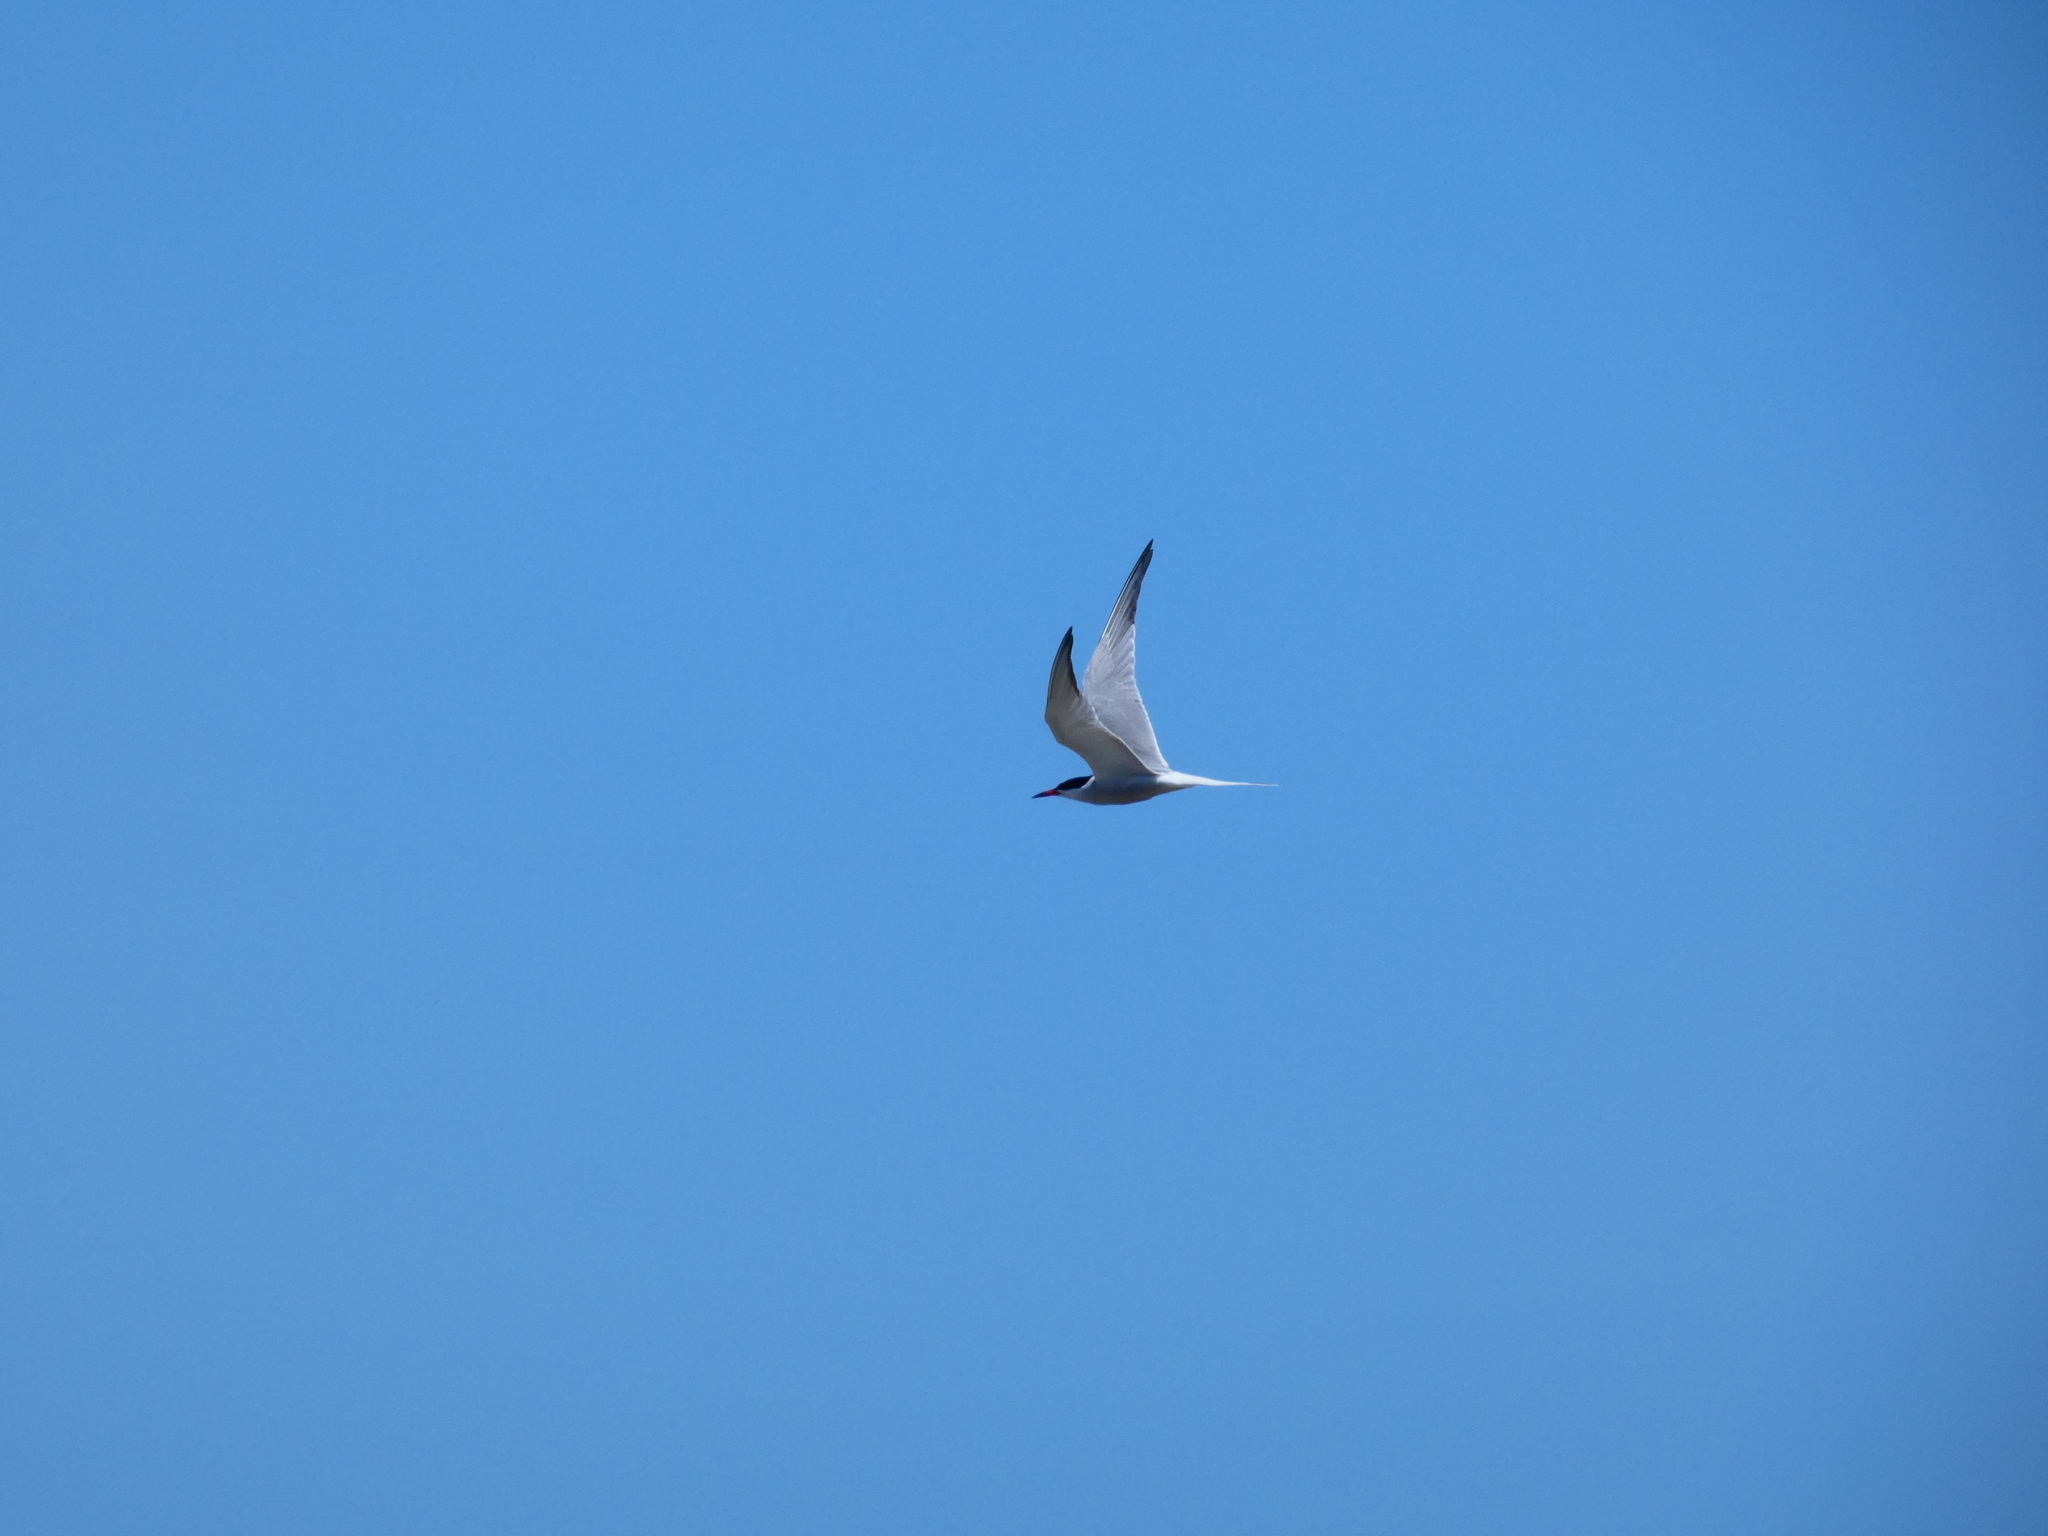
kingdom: Animalia
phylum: Chordata
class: Aves
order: Charadriiformes
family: Laridae
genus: Sterna
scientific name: Sterna hirundo
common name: Common tern
